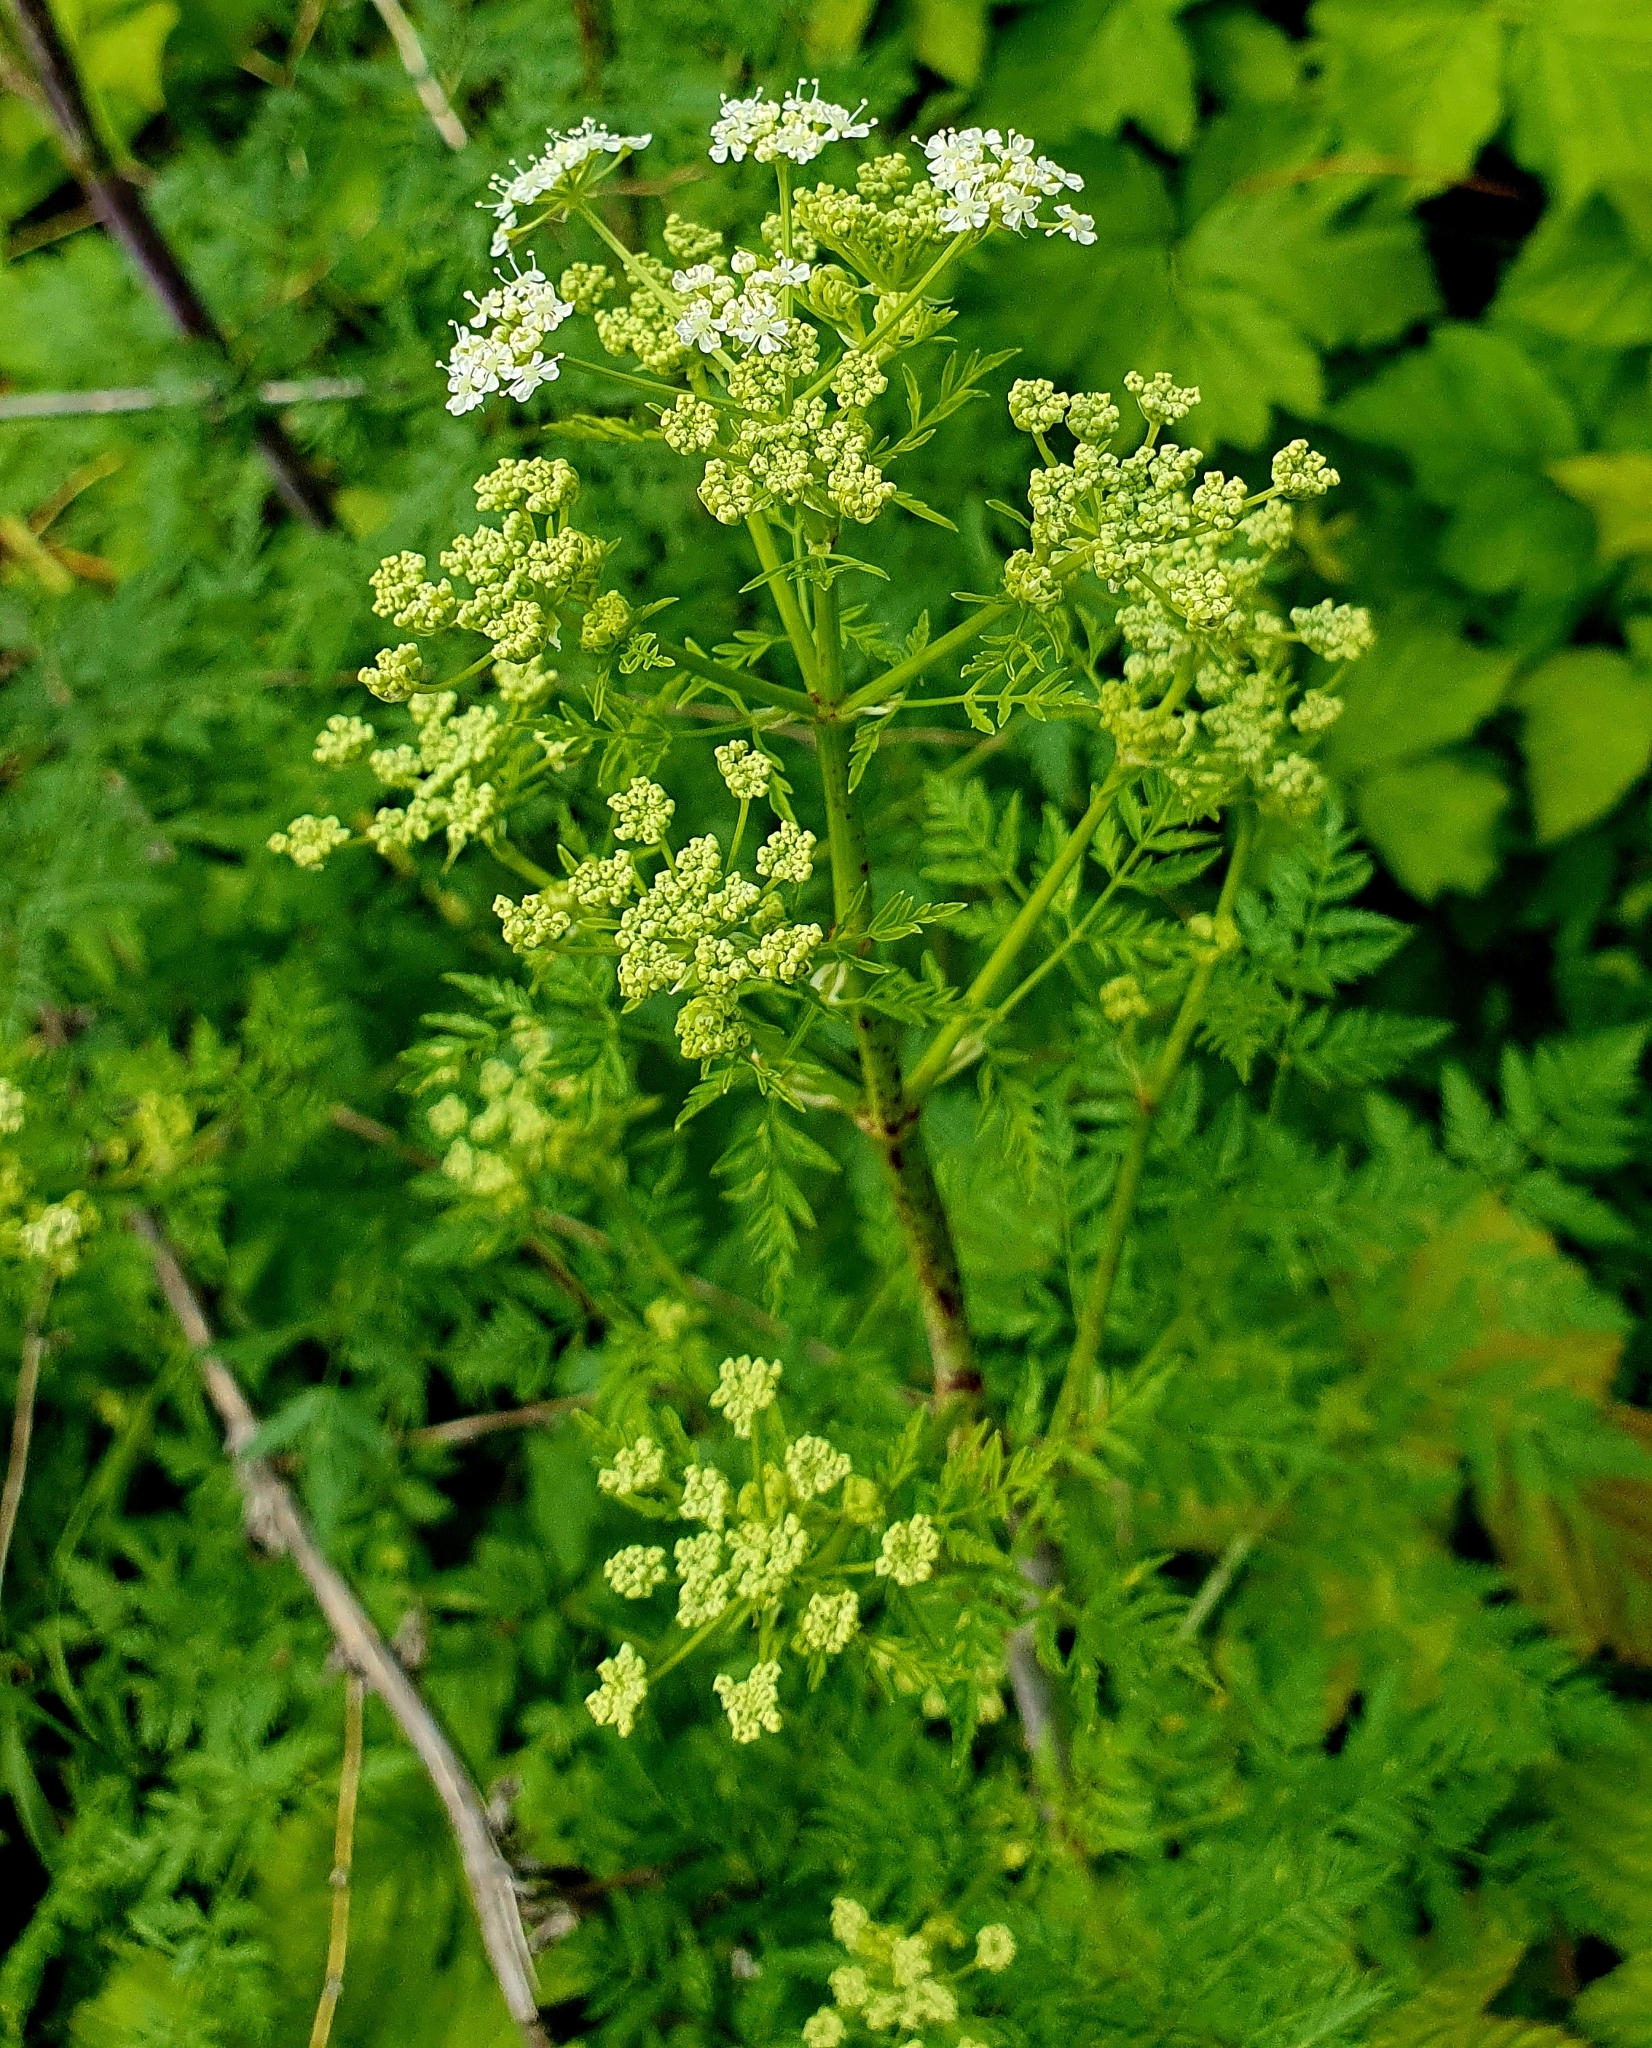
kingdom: Plantae
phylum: Tracheophyta
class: Magnoliopsida
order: Apiales
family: Apiaceae
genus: Conium
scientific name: Conium maculatum
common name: Hemlock
